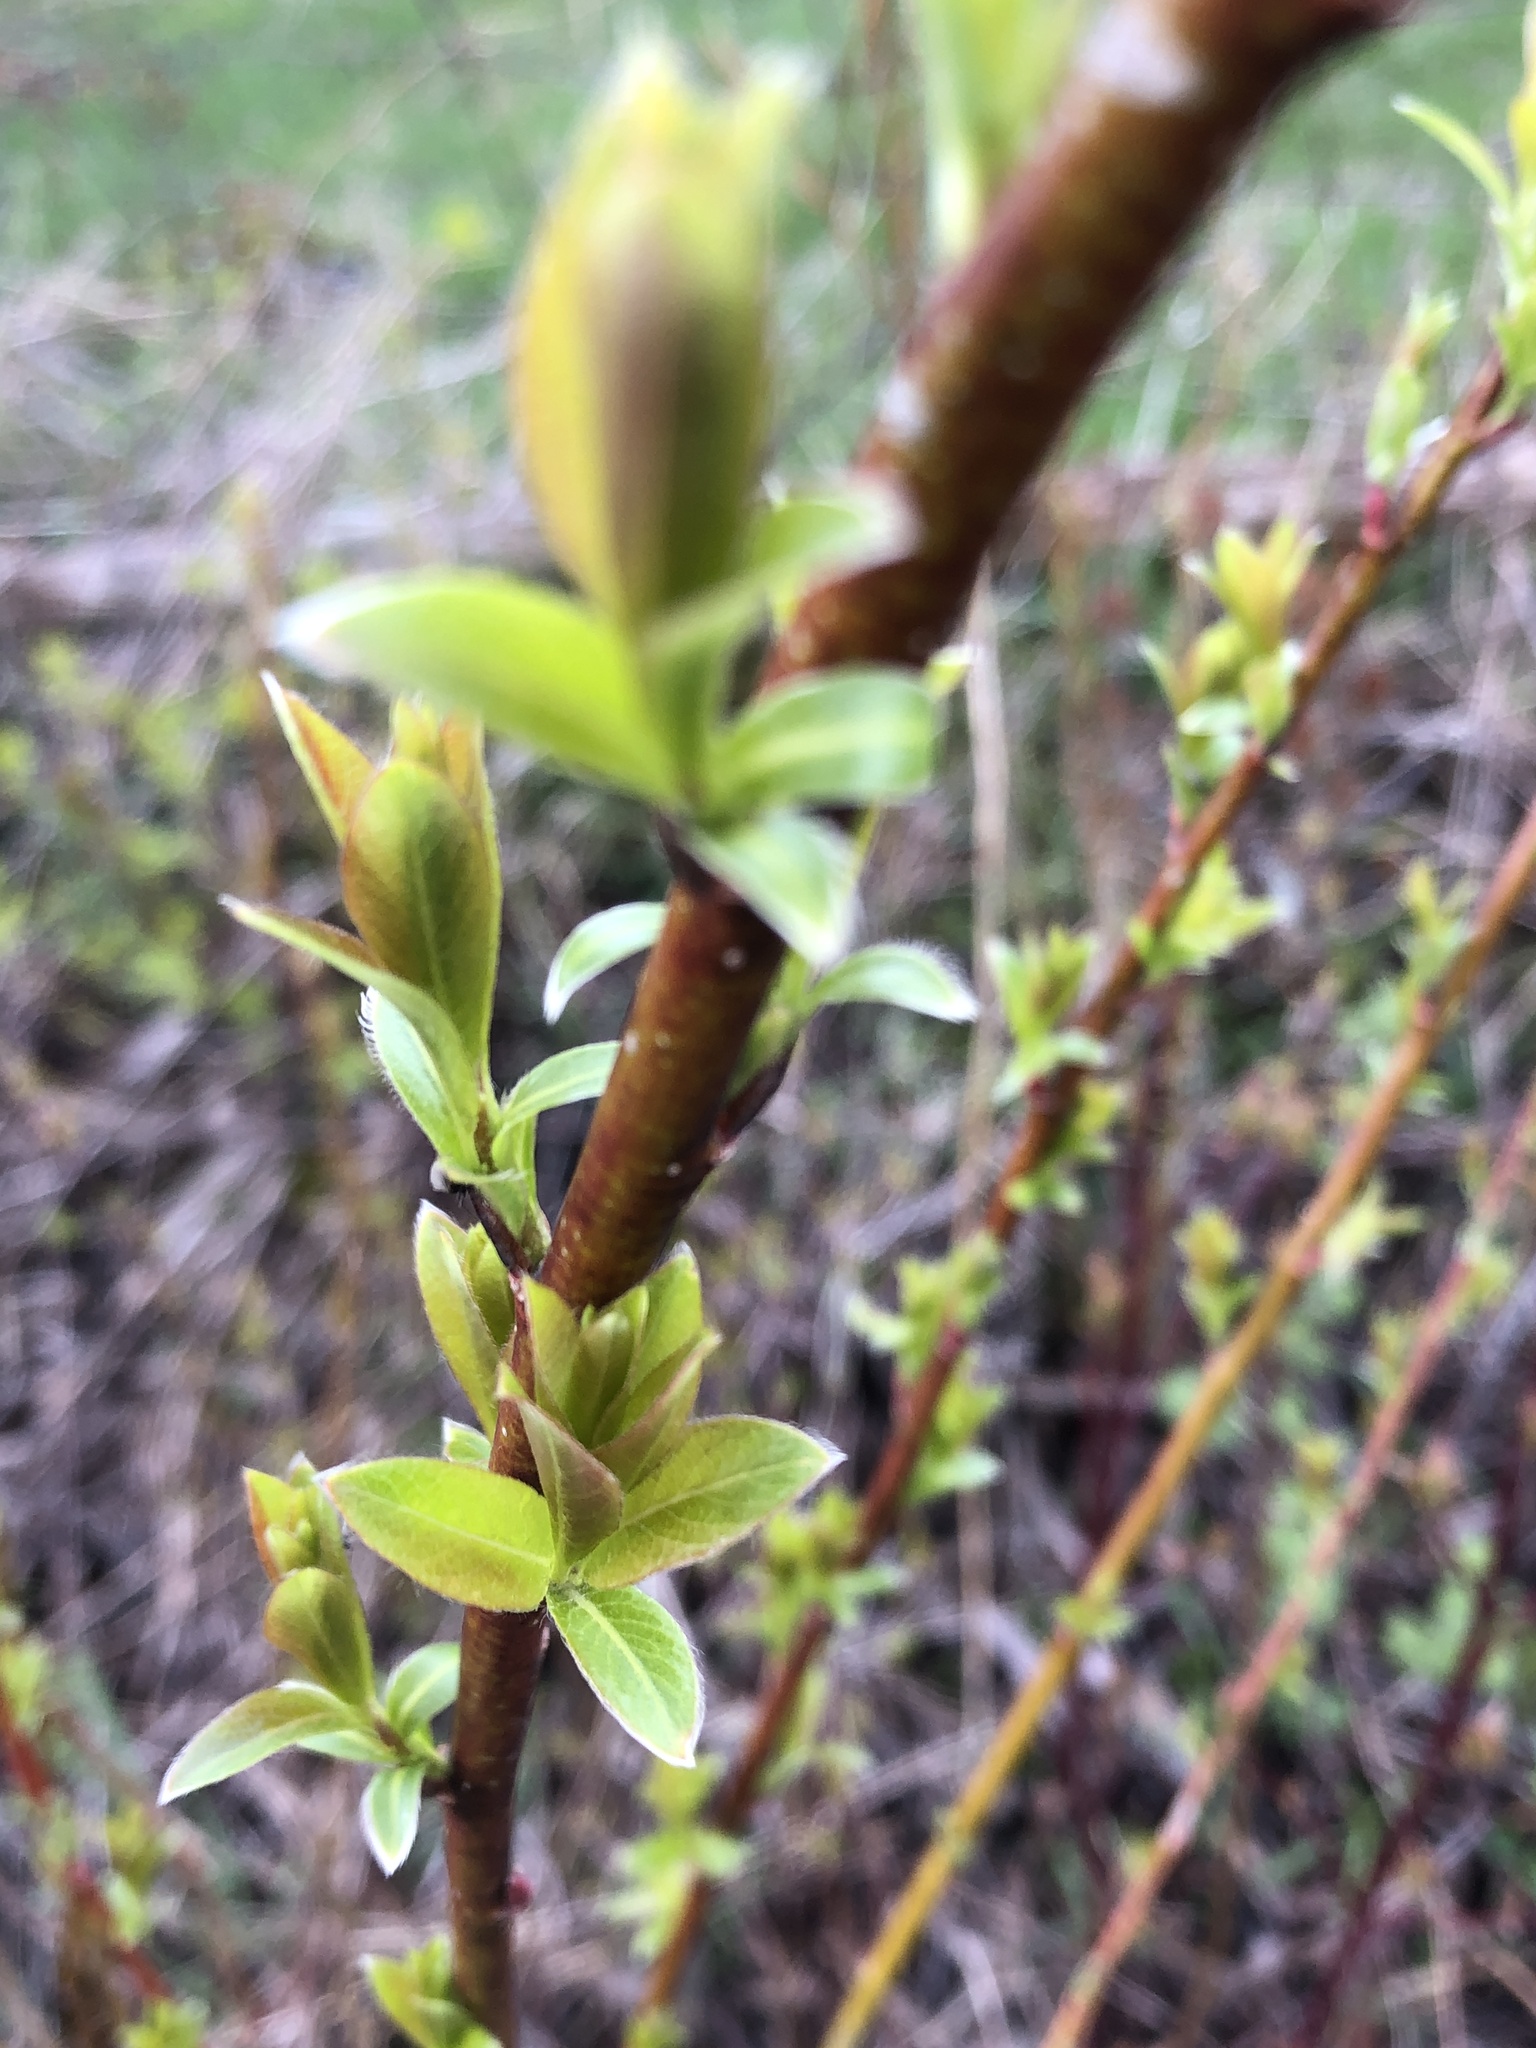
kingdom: Plantae
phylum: Tracheophyta
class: Magnoliopsida
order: Malpighiales
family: Salicaceae
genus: Salix
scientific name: Salix discolor
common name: Glaucous willow
